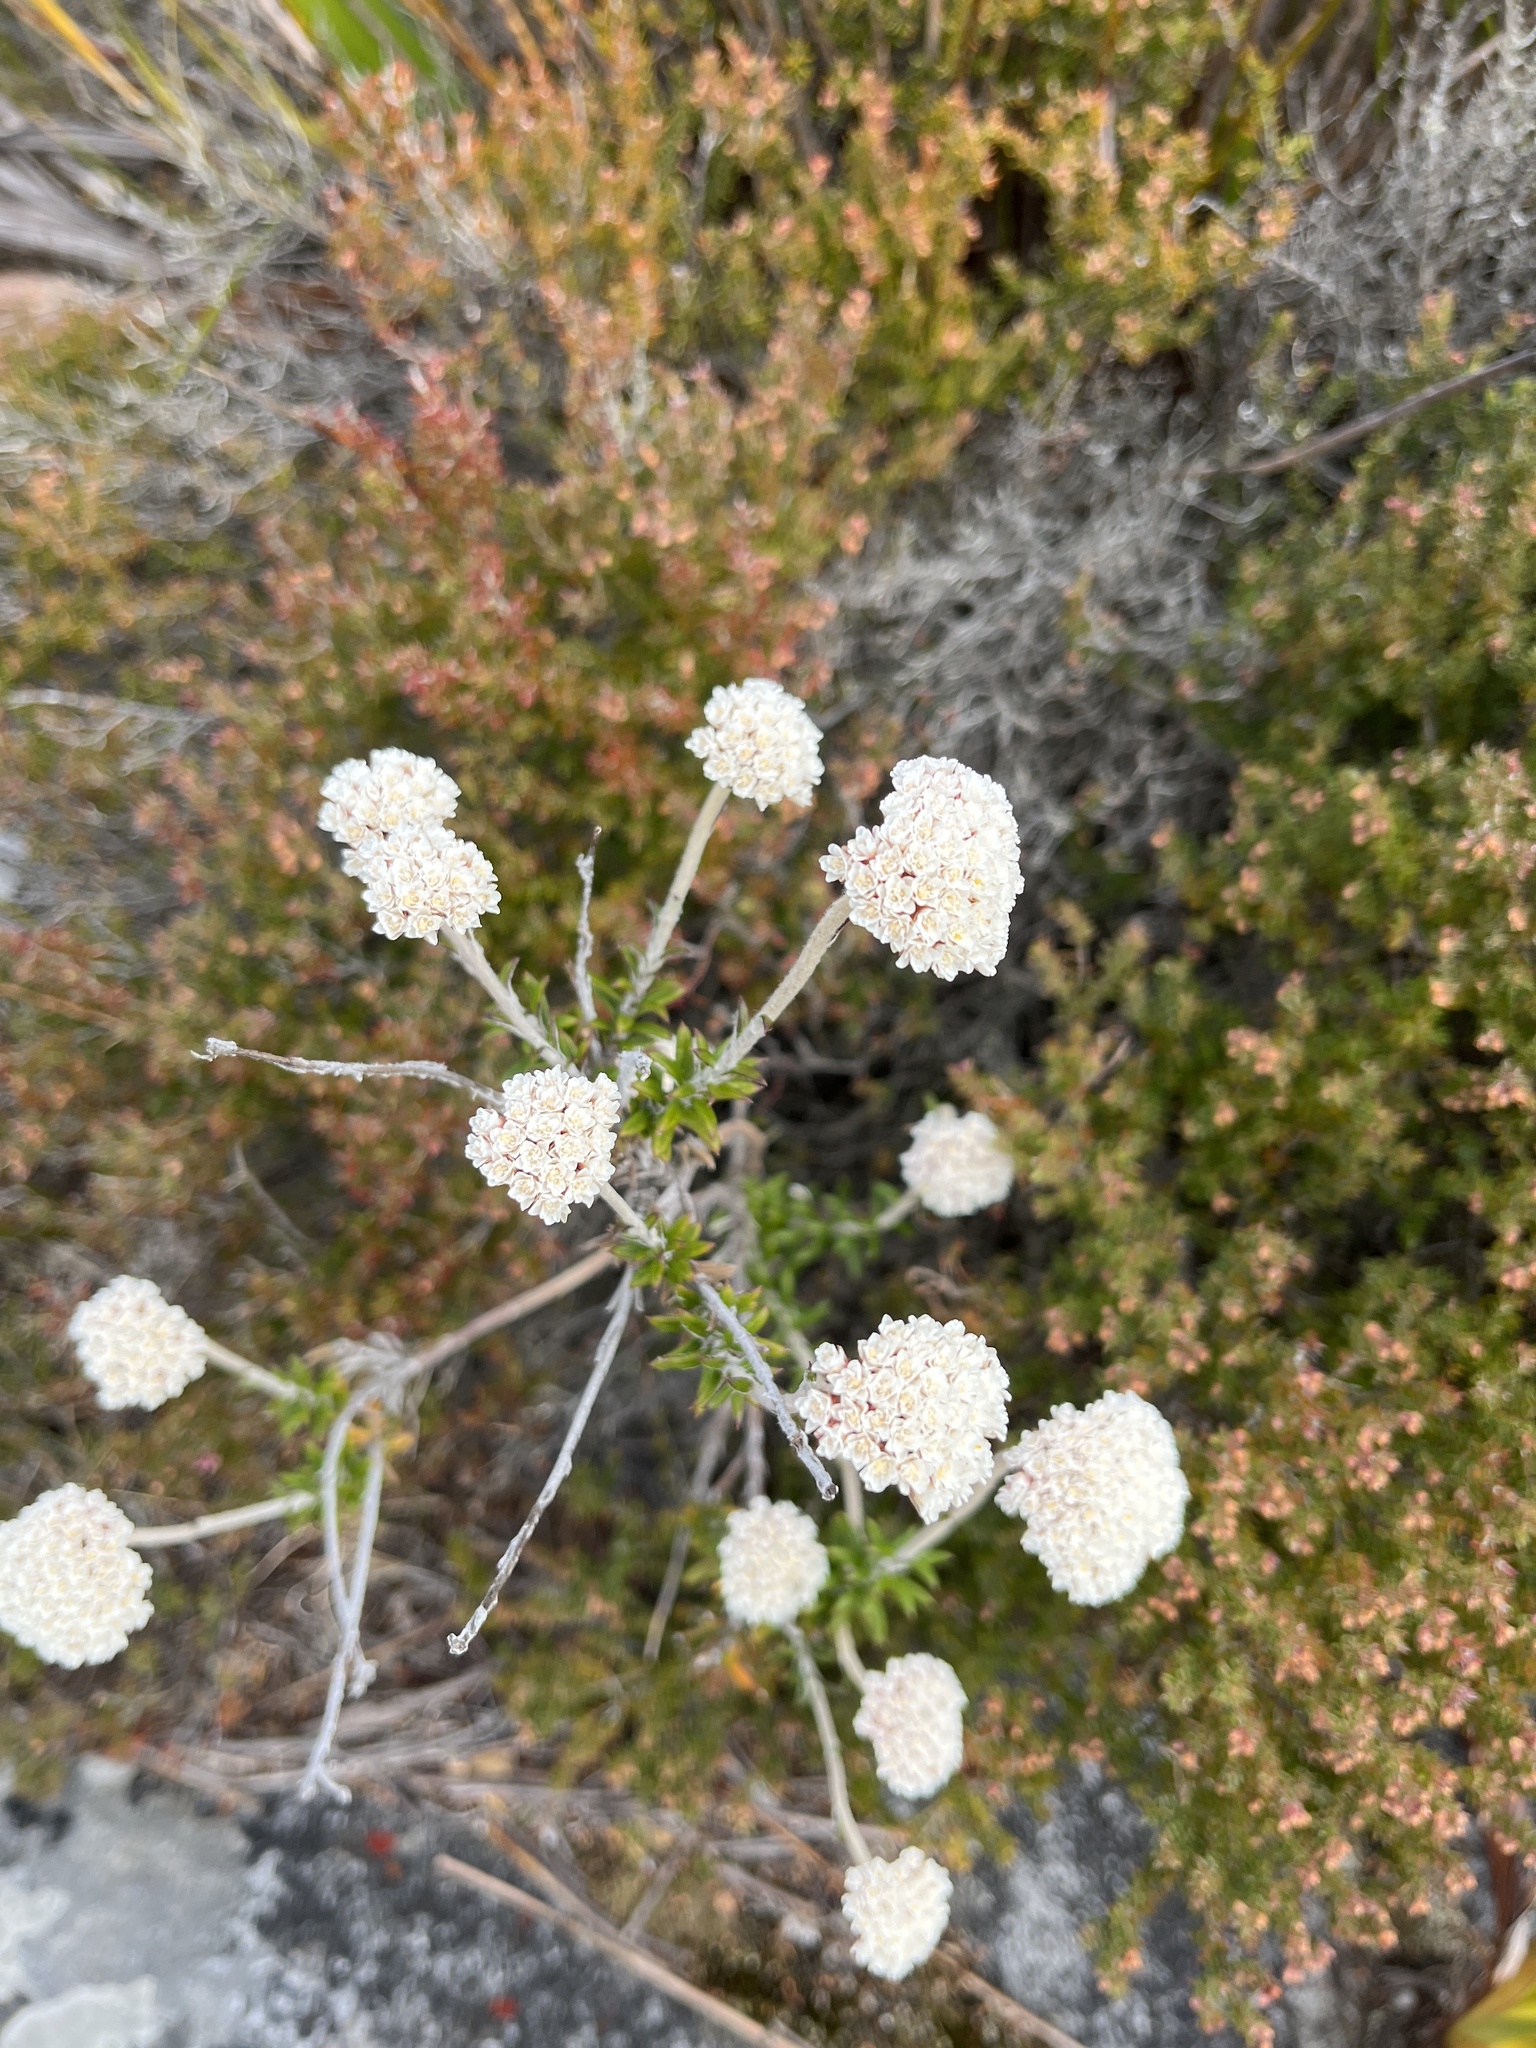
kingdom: Plantae
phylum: Tracheophyta
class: Magnoliopsida
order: Asterales
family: Asteraceae
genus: Anaxeton
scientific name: Anaxeton arborescens
